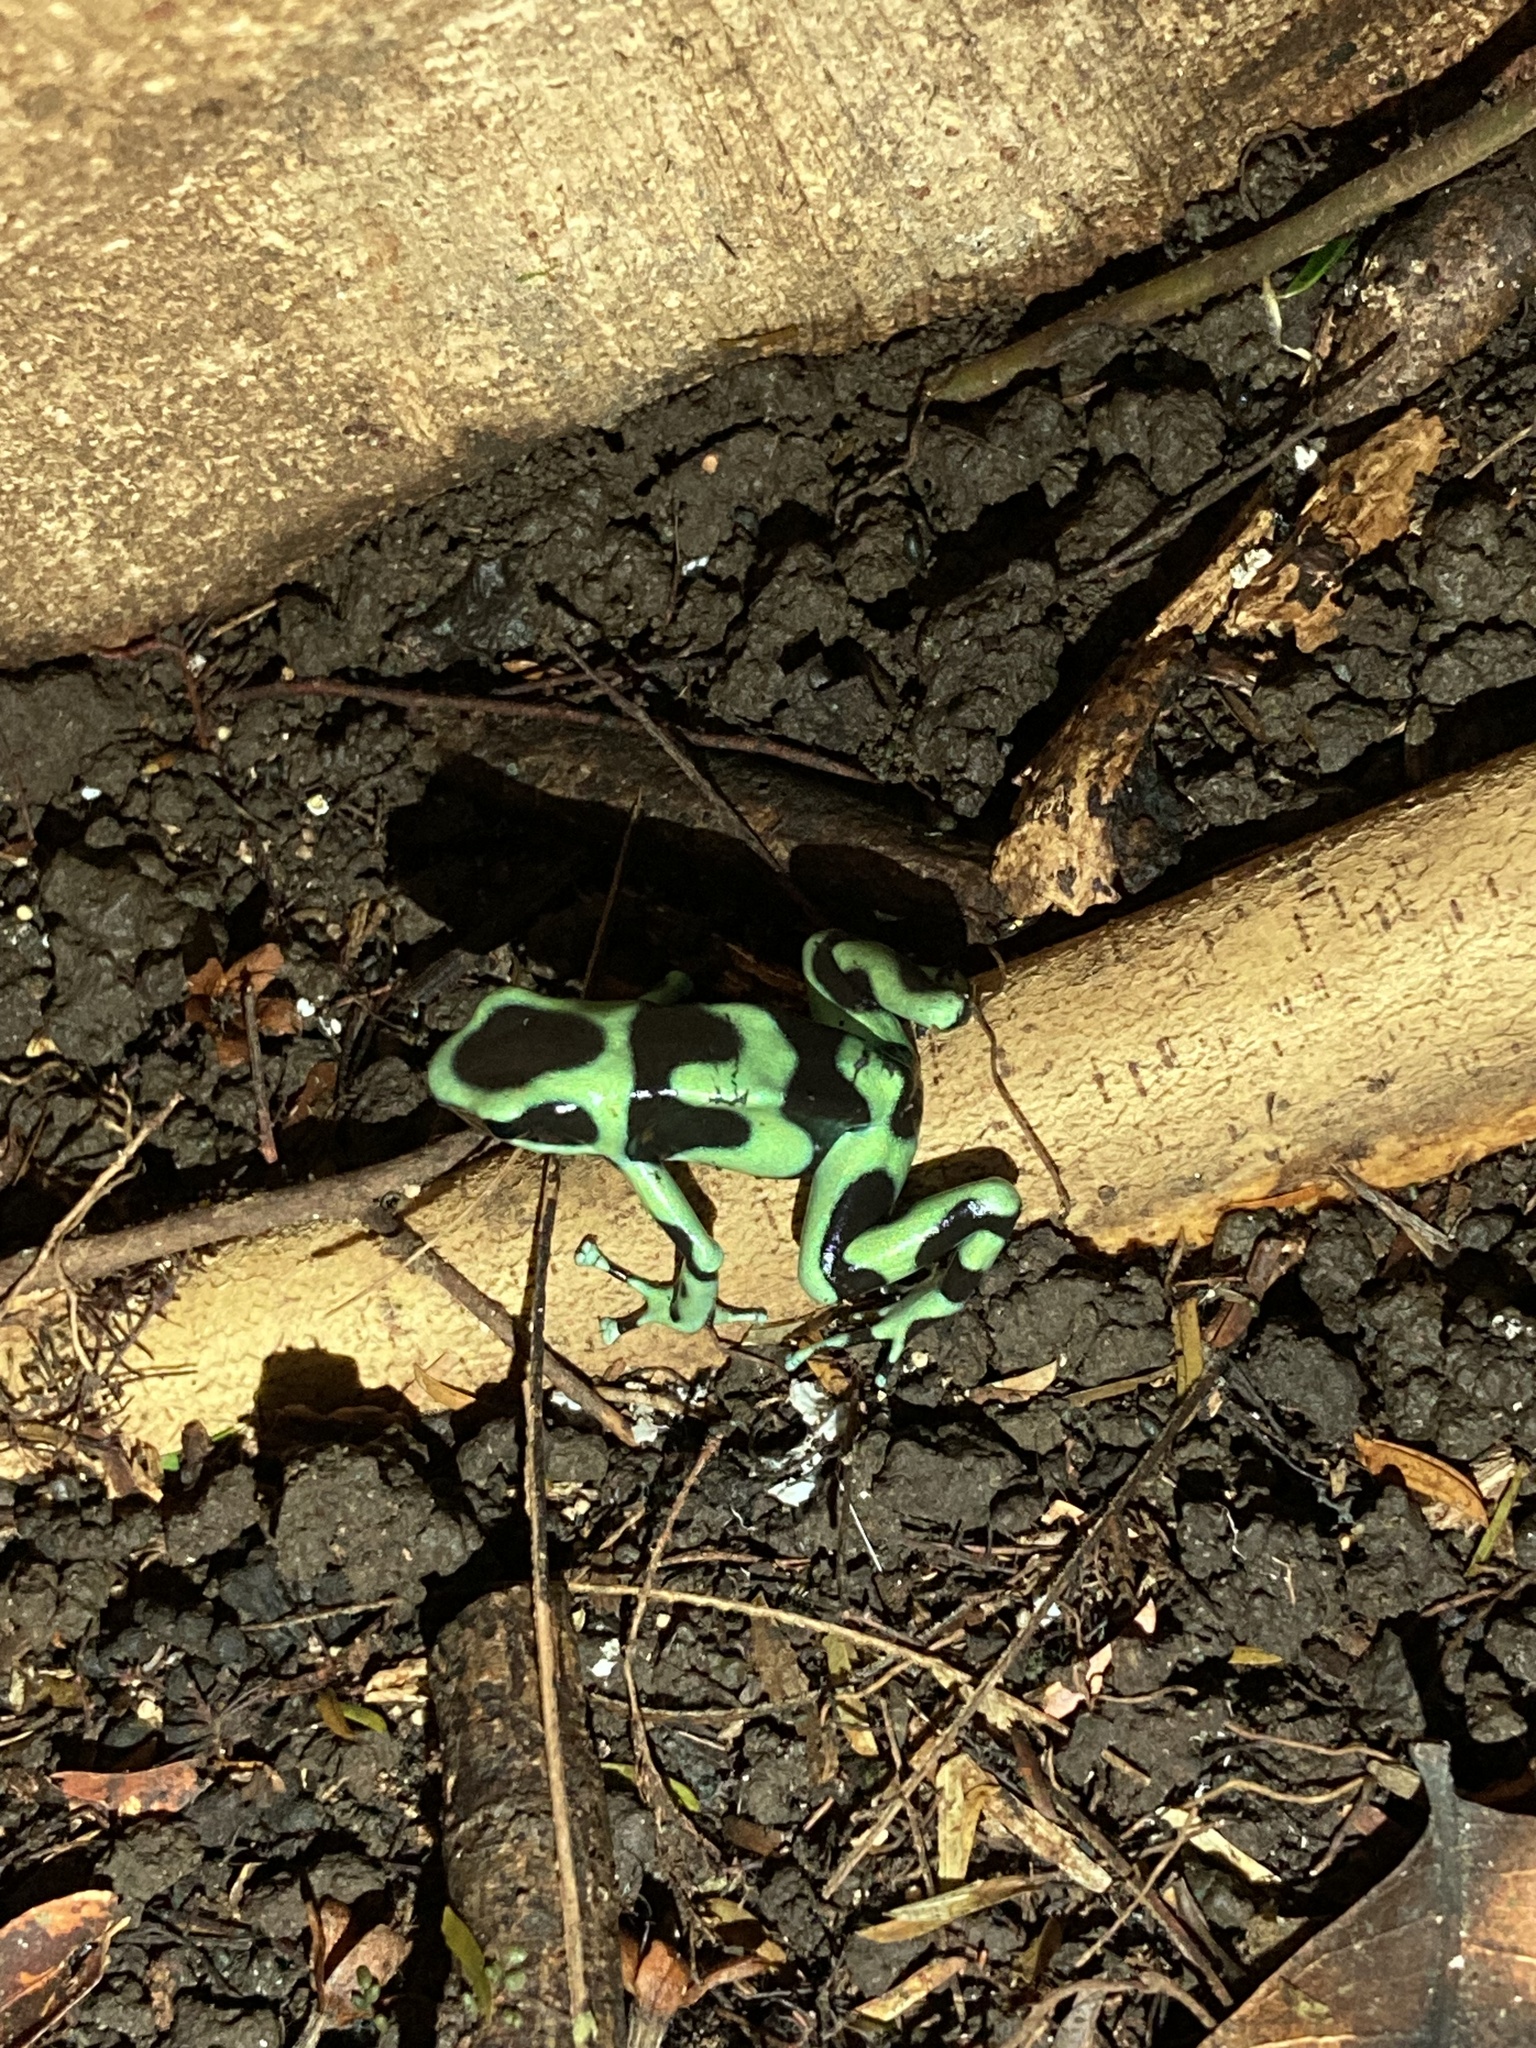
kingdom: Animalia
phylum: Chordata
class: Amphibia
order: Anura
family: Dendrobatidae
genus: Dendrobates
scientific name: Dendrobates auratus
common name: Green and black poison dart frog
